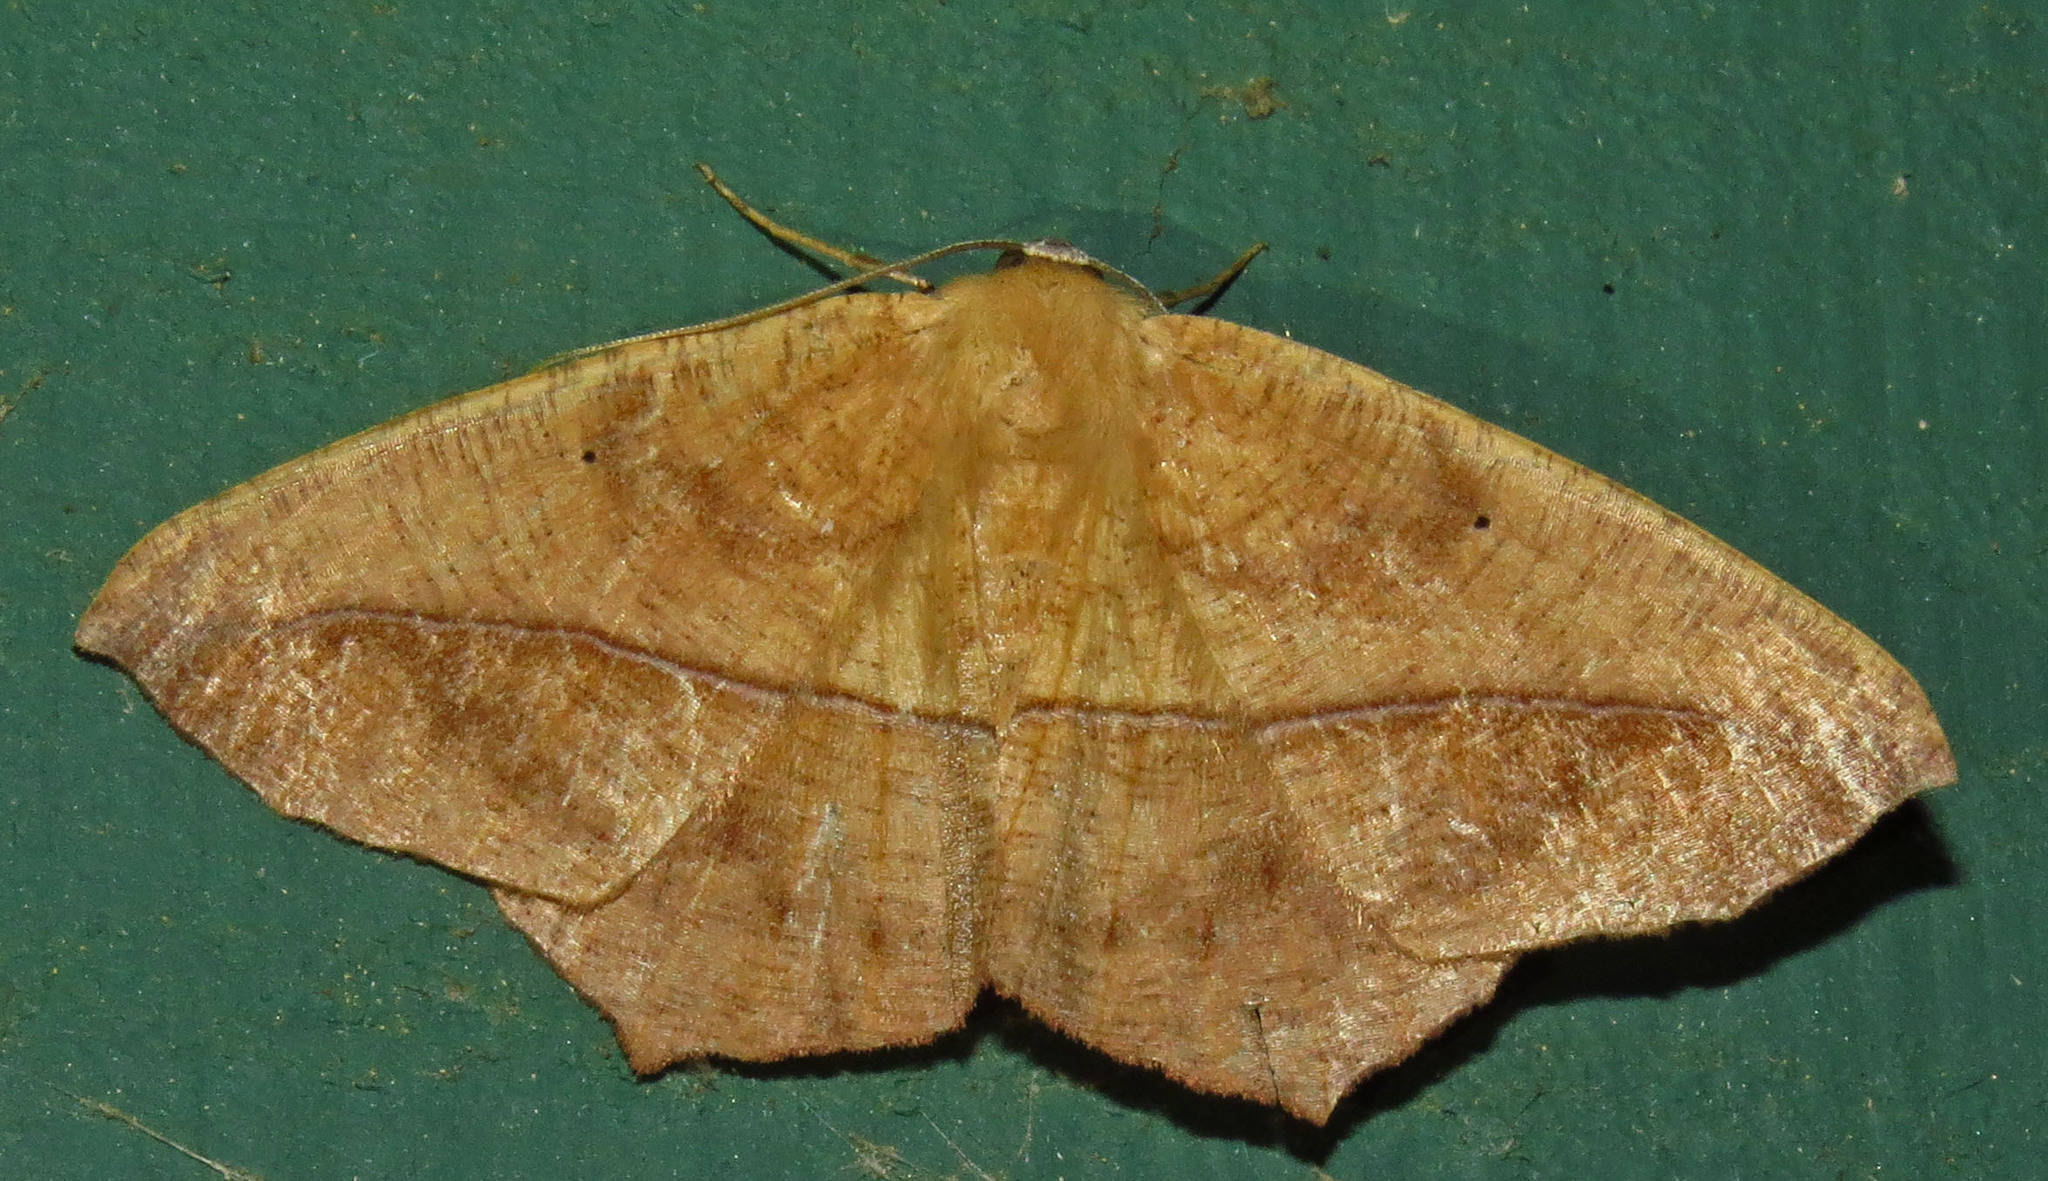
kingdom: Animalia
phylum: Arthropoda
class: Insecta
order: Lepidoptera
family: Geometridae
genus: Prochoerodes
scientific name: Prochoerodes lineola
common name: Large maple spanworm
